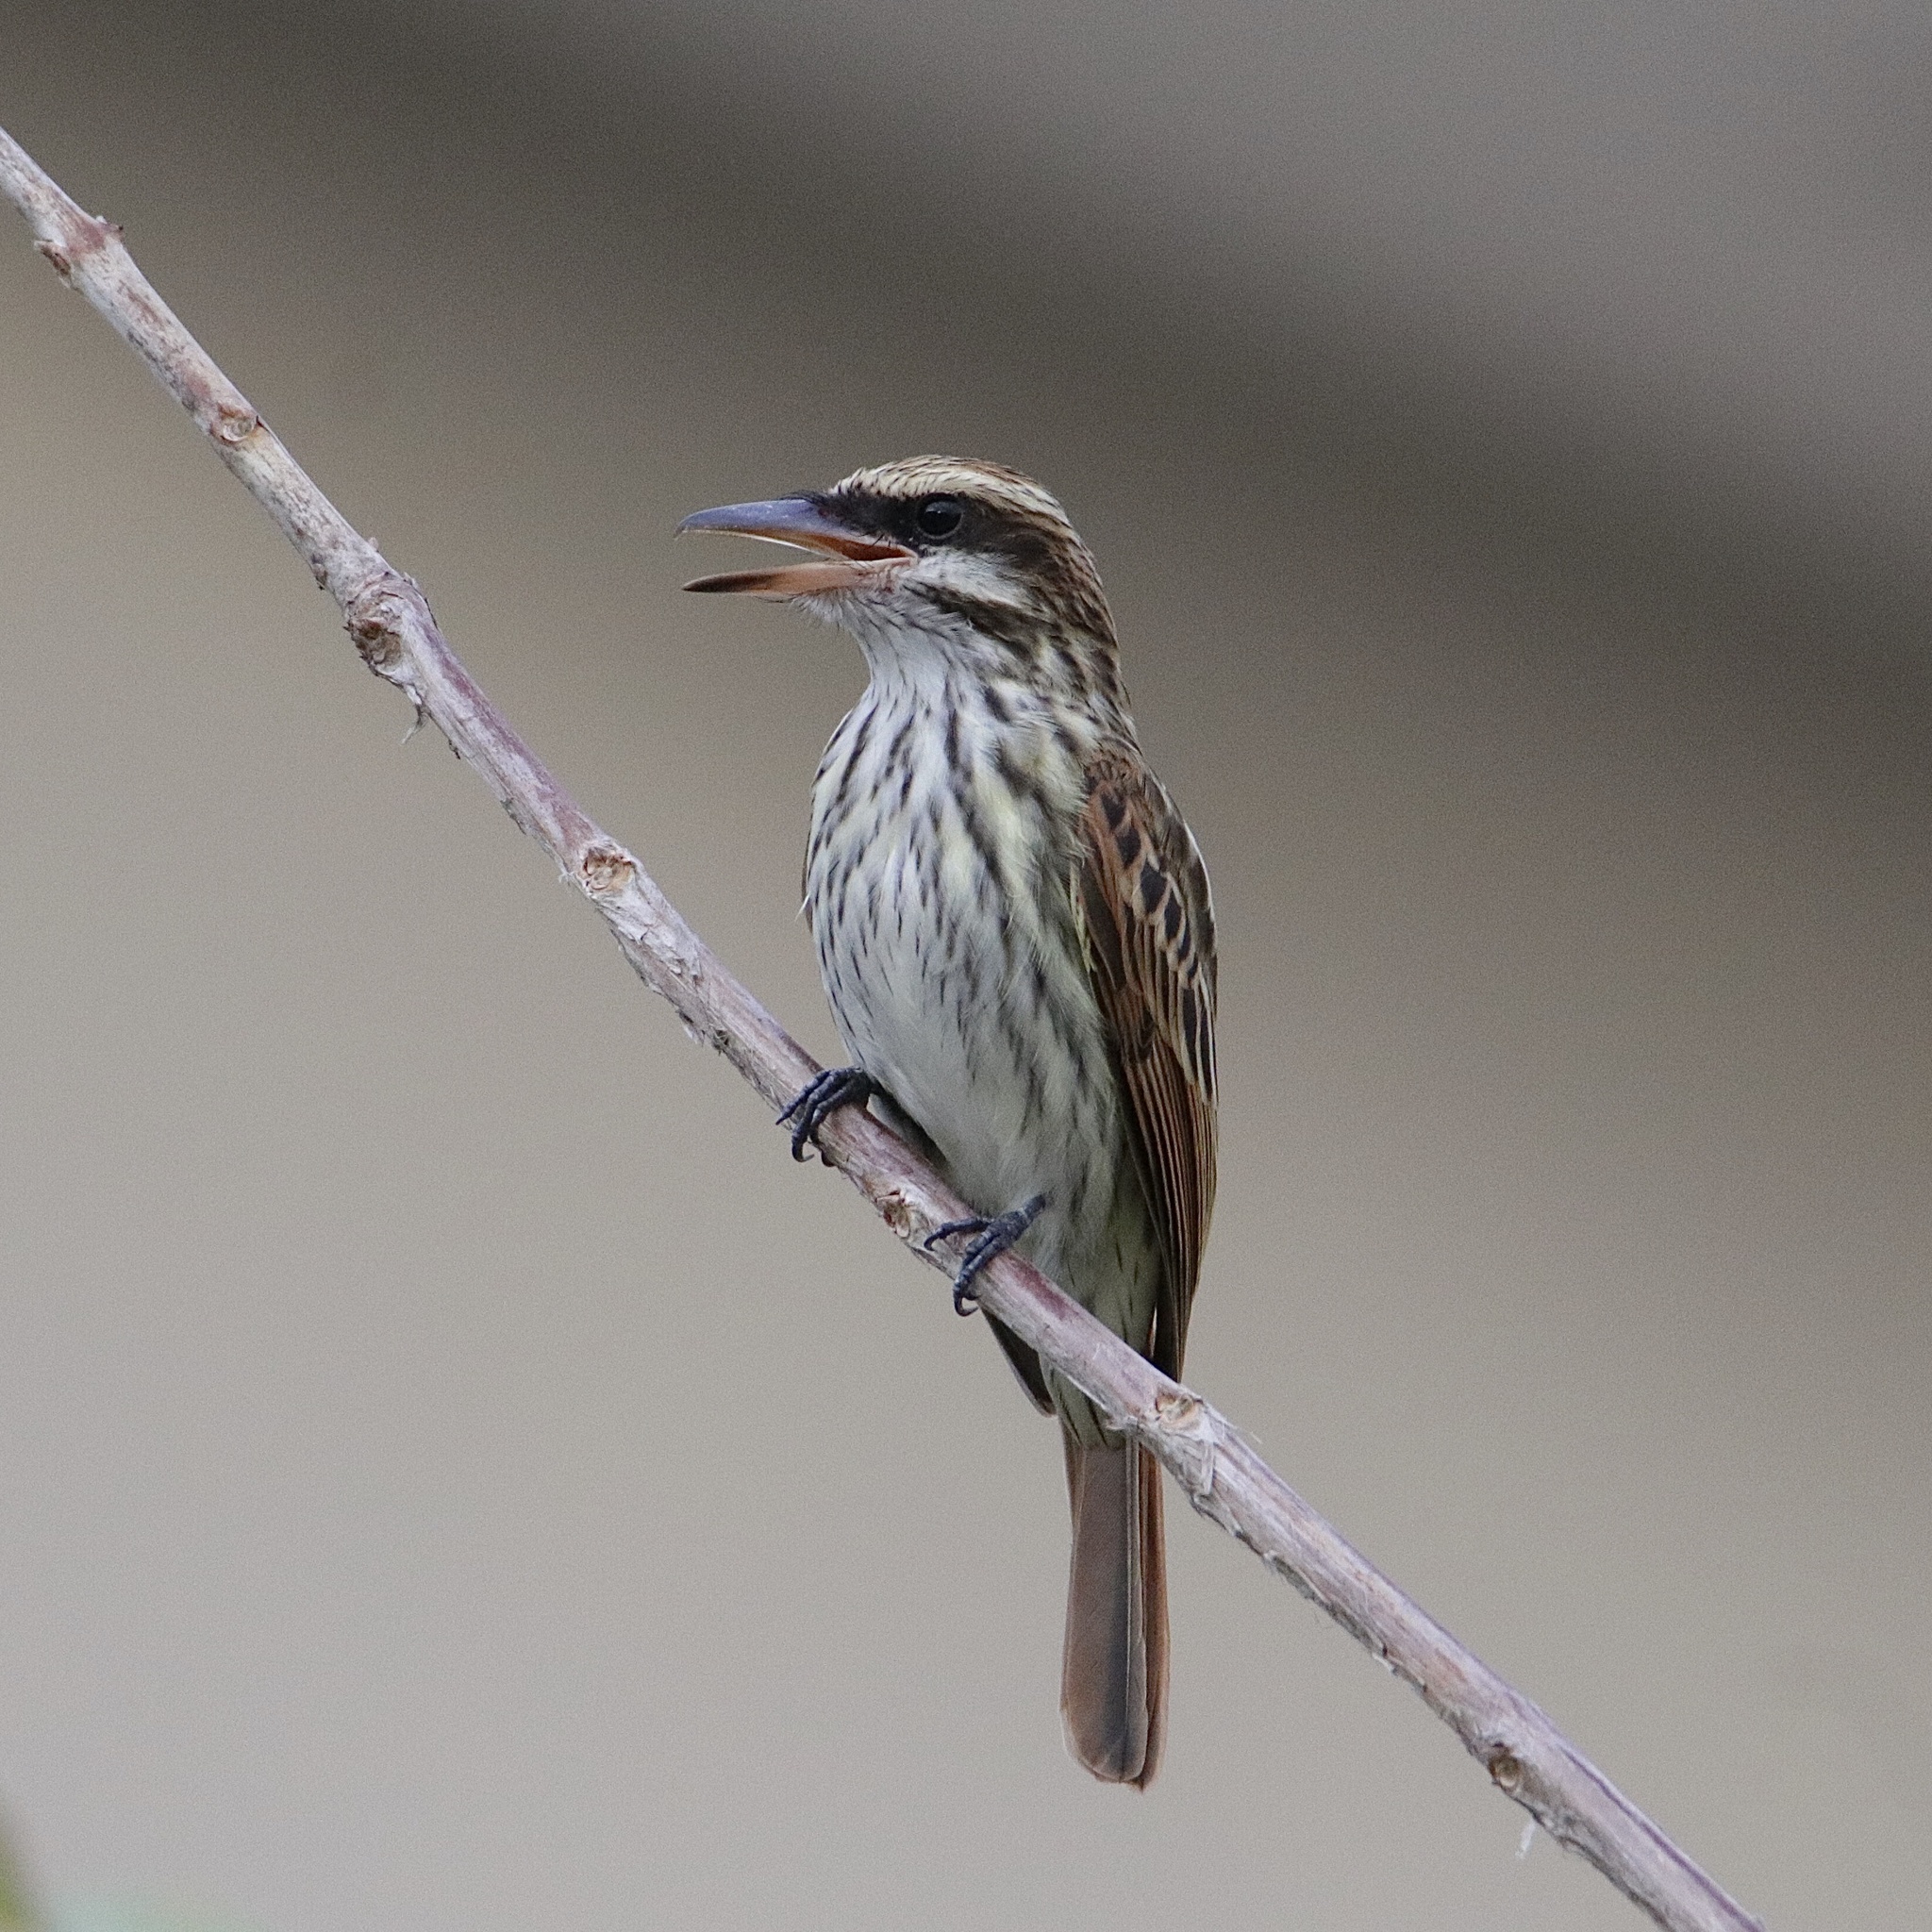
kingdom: Animalia
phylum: Chordata
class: Aves
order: Passeriformes
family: Tyrannidae
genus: Myiodynastes
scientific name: Myiodynastes maculatus
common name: Streaked flycatcher
